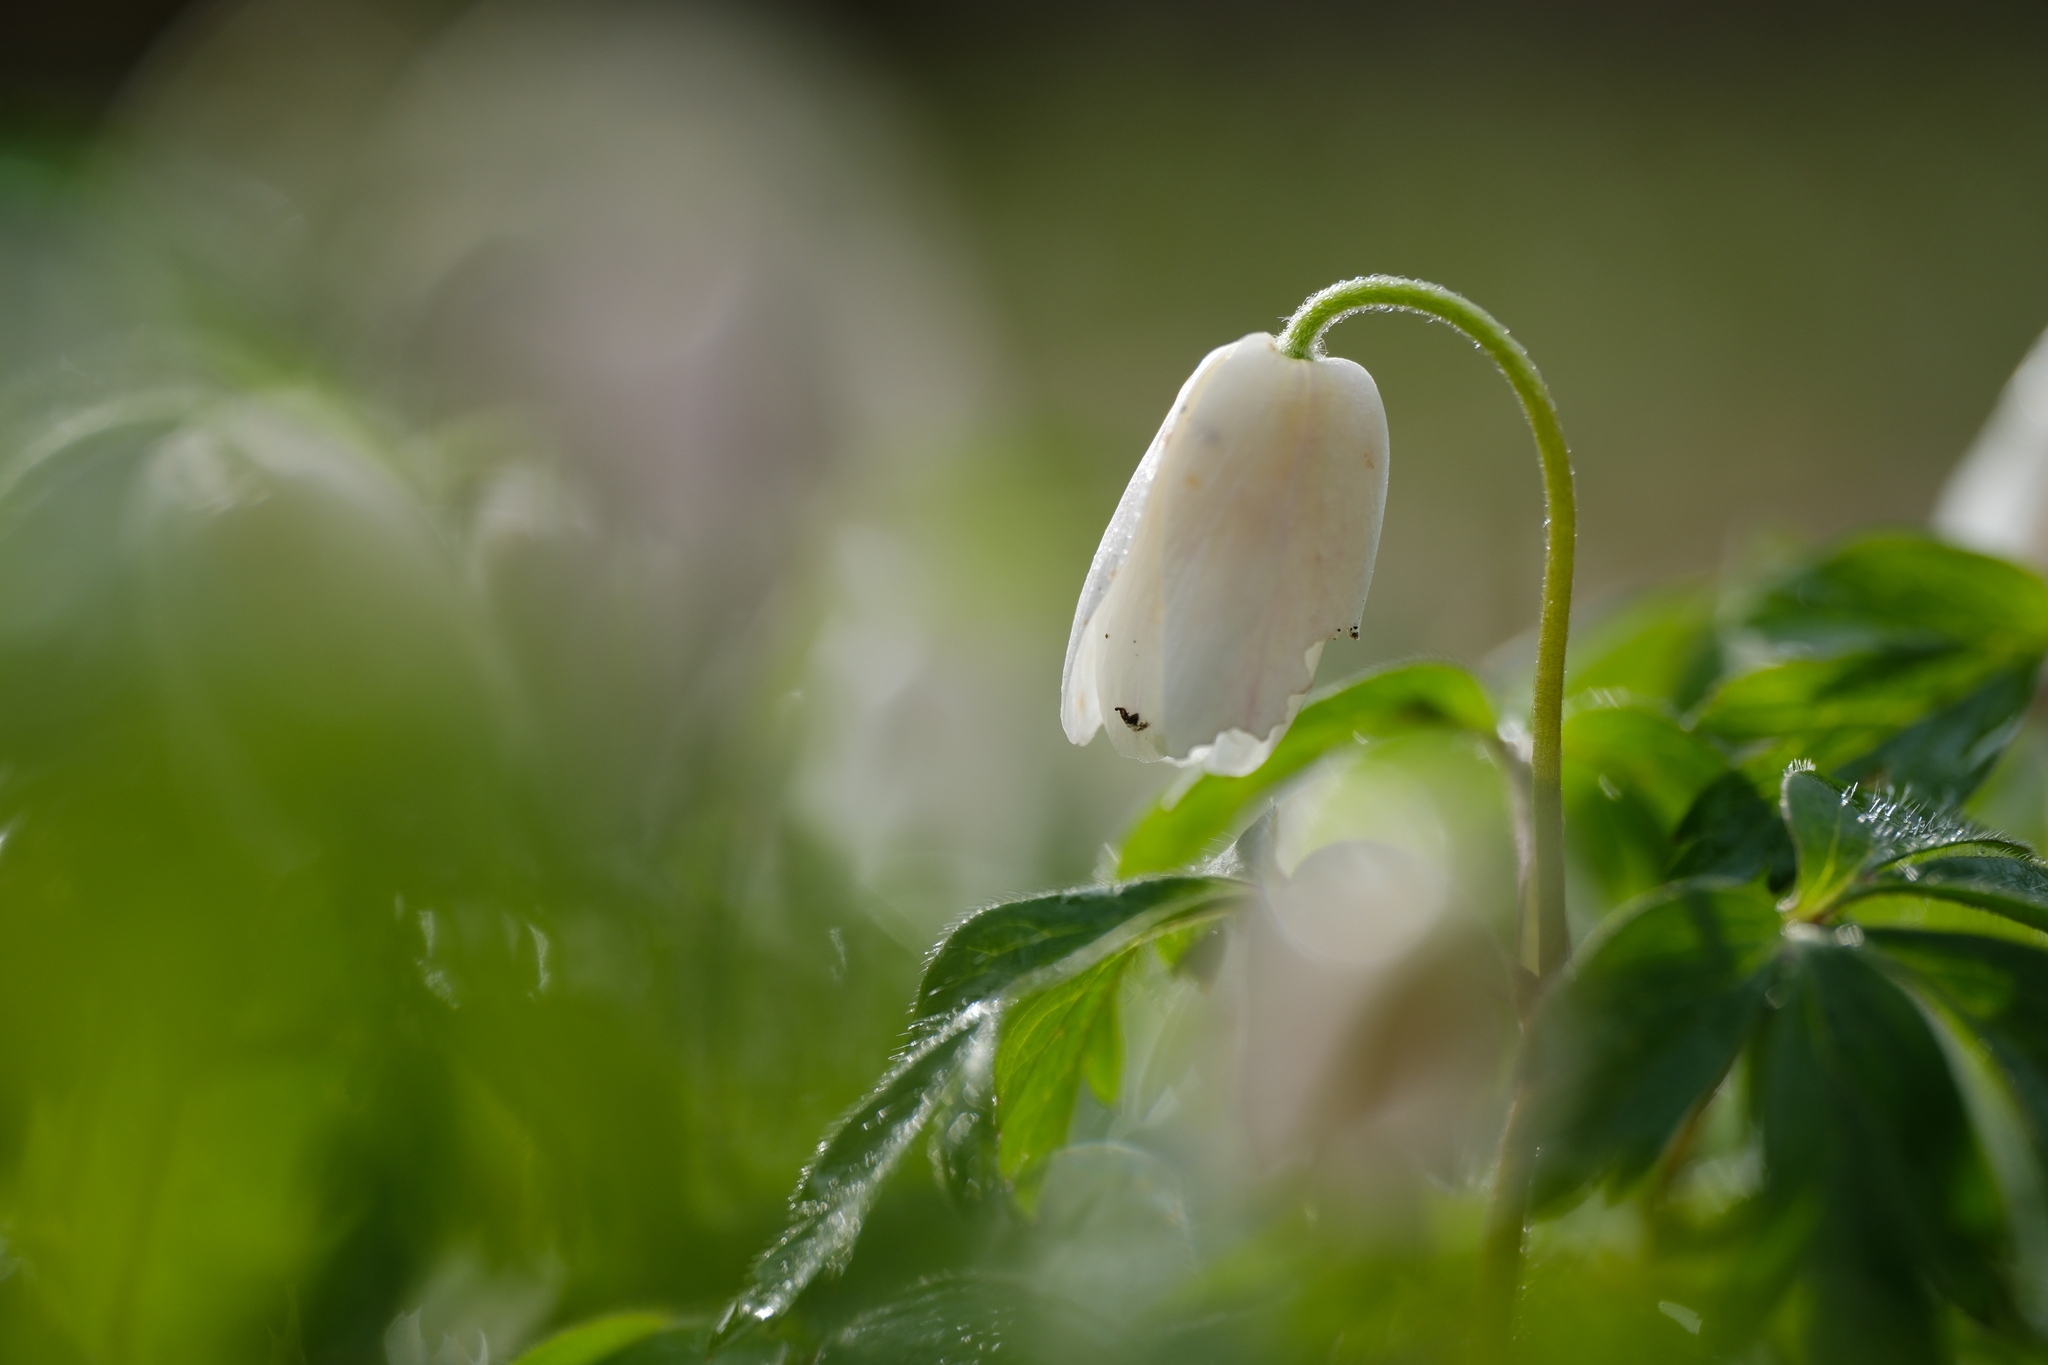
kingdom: Plantae
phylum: Tracheophyta
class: Magnoliopsida
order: Ranunculales
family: Ranunculaceae
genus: Anemone
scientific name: Anemone nemorosa
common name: Wood anemone
